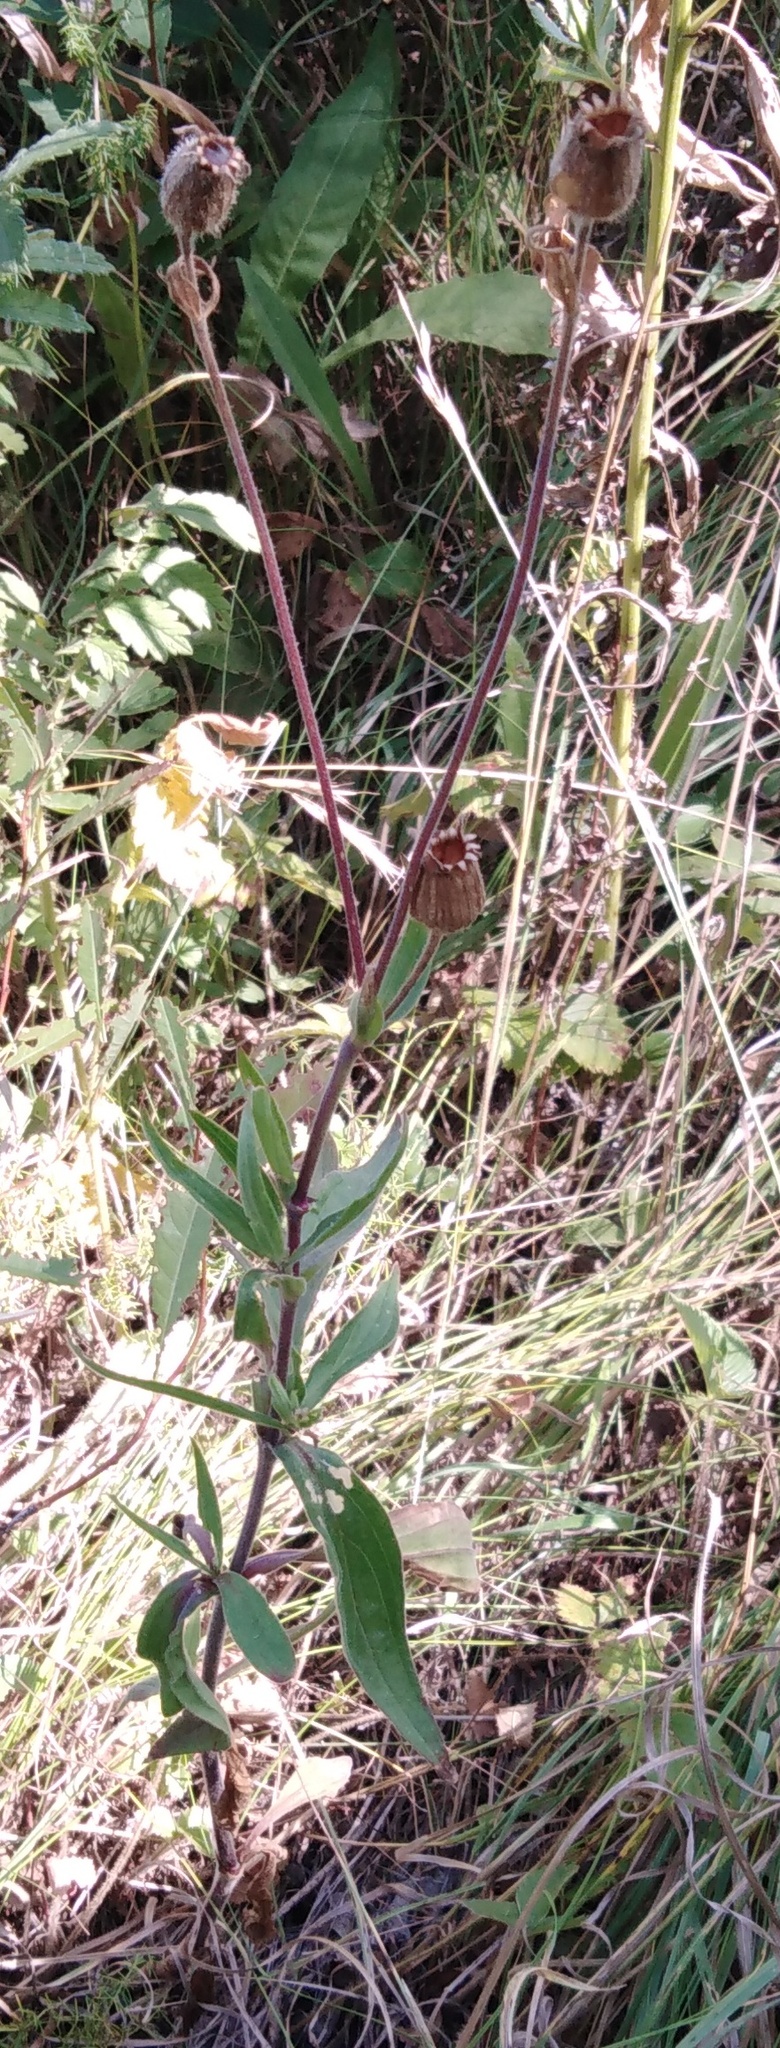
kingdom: Plantae
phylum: Tracheophyta
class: Magnoliopsida
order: Caryophyllales
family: Caryophyllaceae
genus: Silene
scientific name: Silene latifolia
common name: White campion
